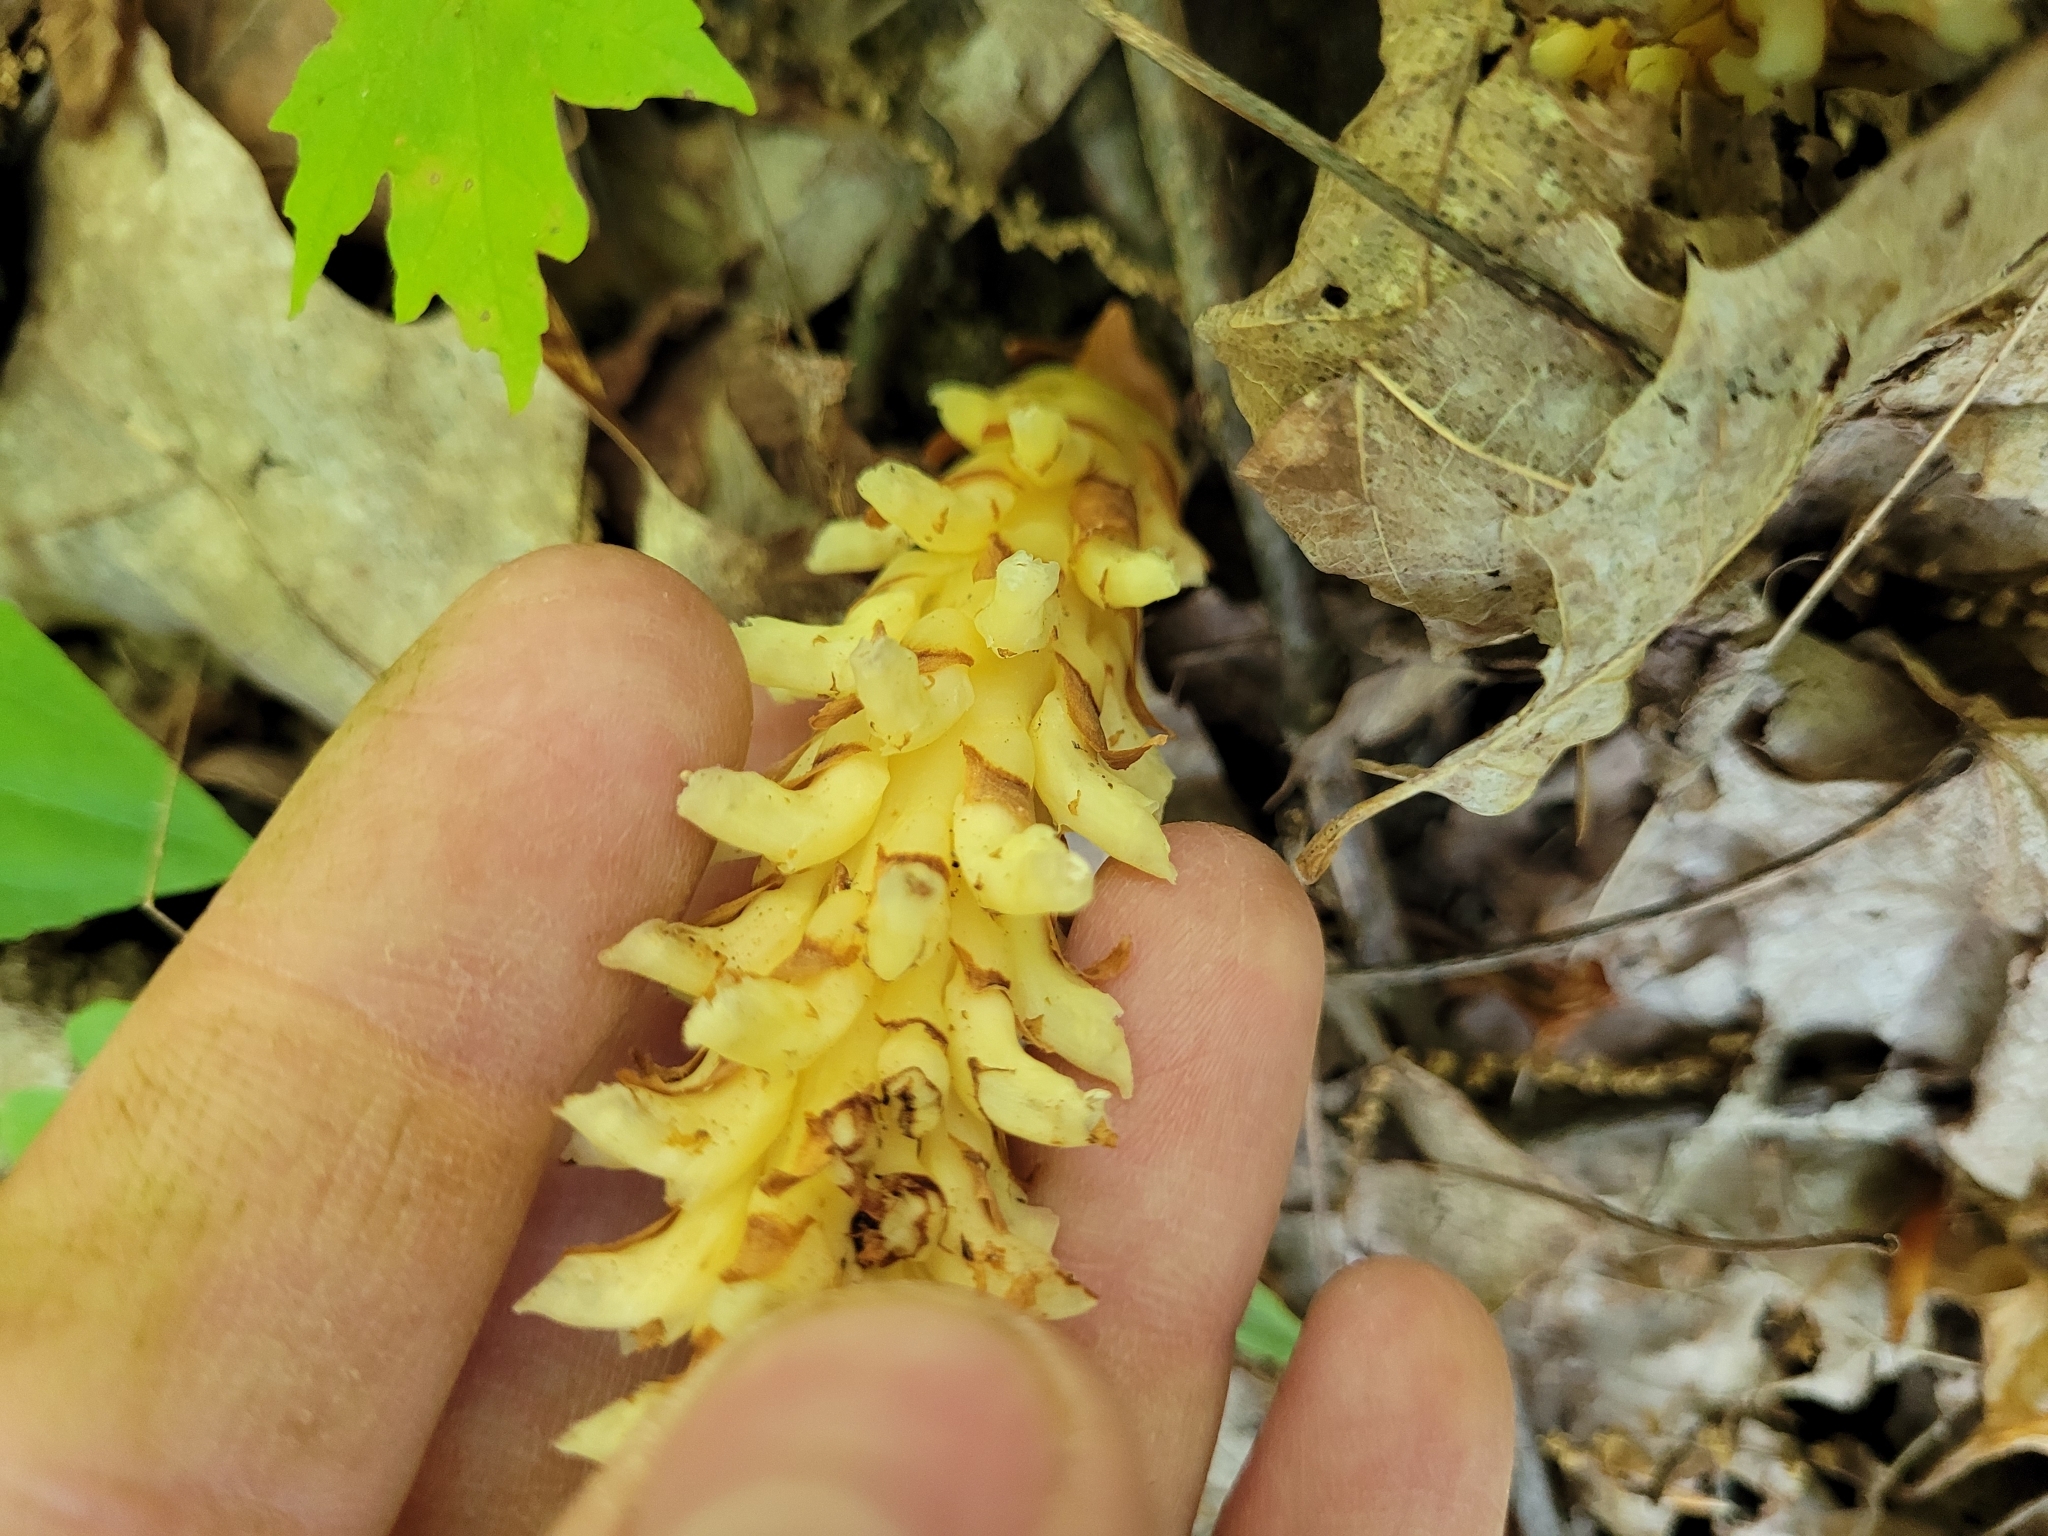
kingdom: Plantae
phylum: Tracheophyta
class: Magnoliopsida
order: Lamiales
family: Orobanchaceae
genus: Conopholis
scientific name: Conopholis americana
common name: American cancer-root
